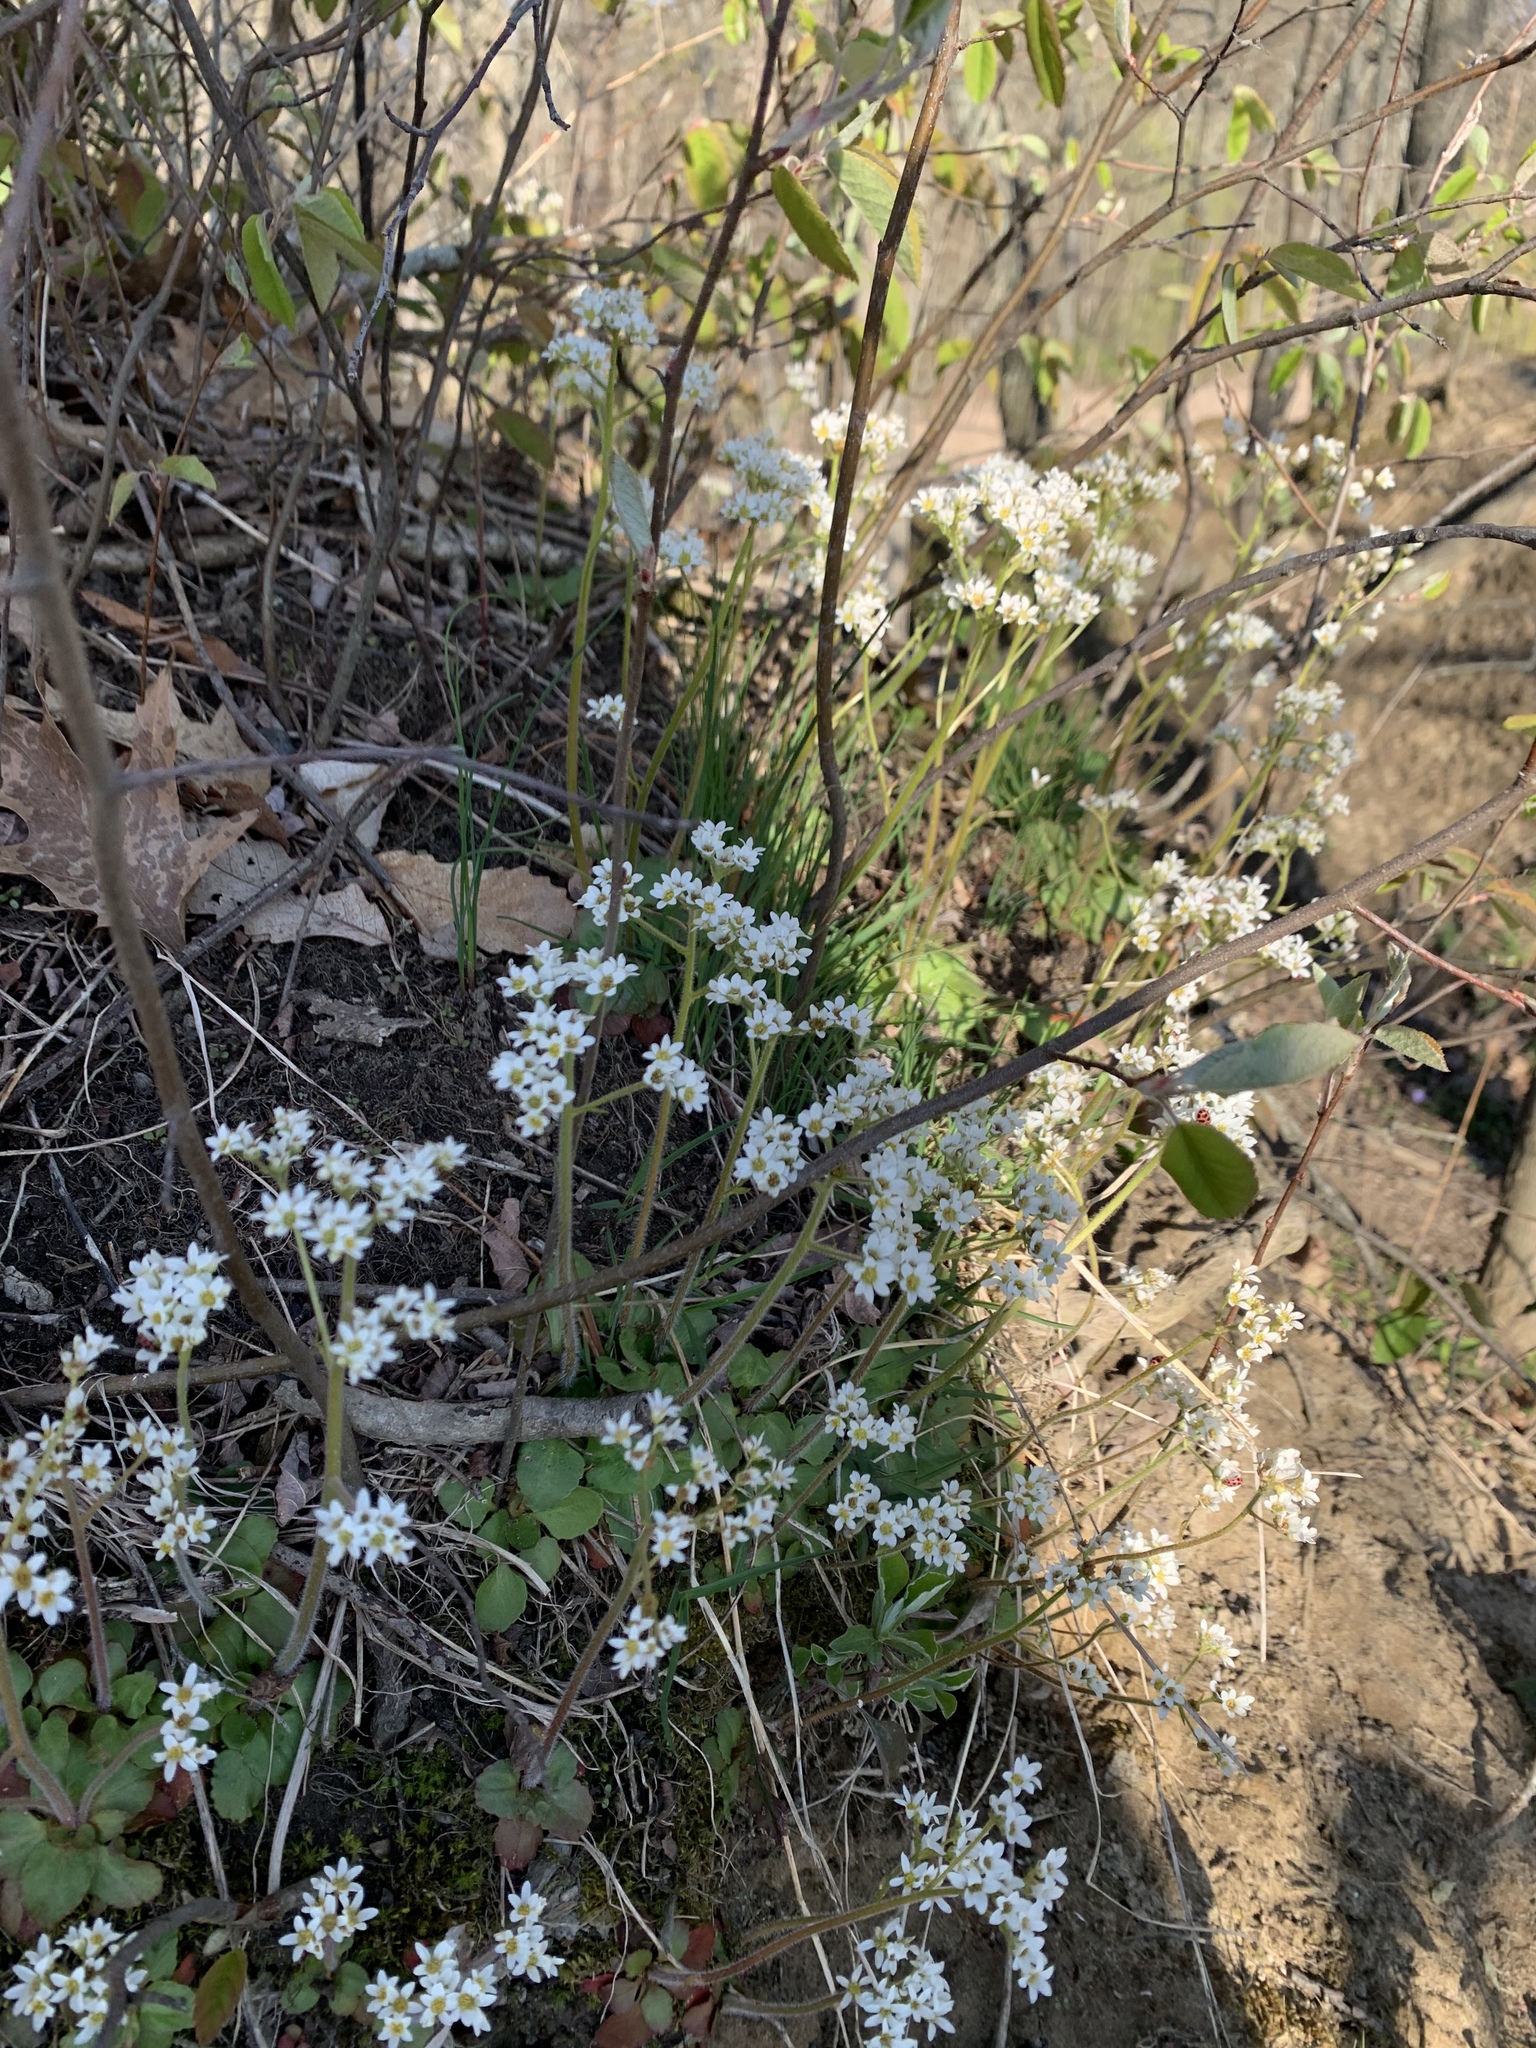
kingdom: Plantae
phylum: Tracheophyta
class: Magnoliopsida
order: Saxifragales
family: Saxifragaceae
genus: Micranthes
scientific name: Micranthes virginiensis
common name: Early saxifrage
